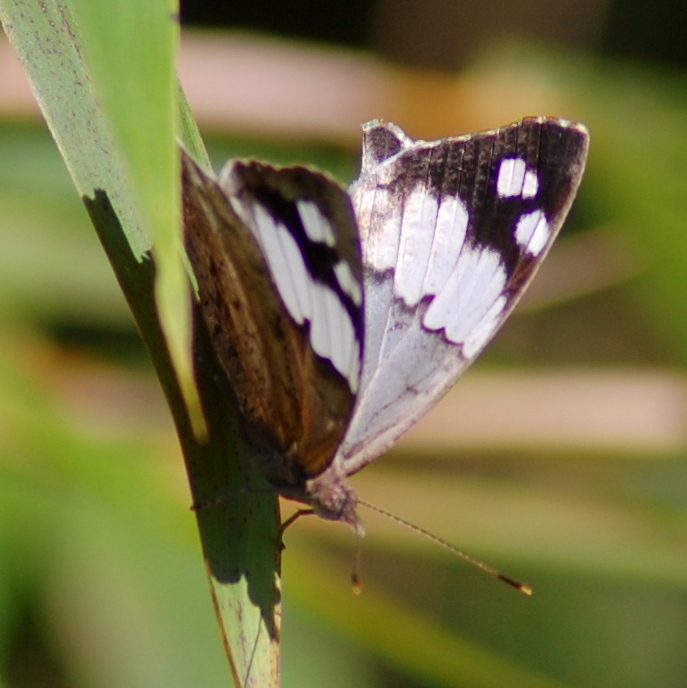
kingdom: Animalia
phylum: Arthropoda
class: Insecta
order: Lepidoptera
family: Nymphalidae
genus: Eunica
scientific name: Eunica eburnea
